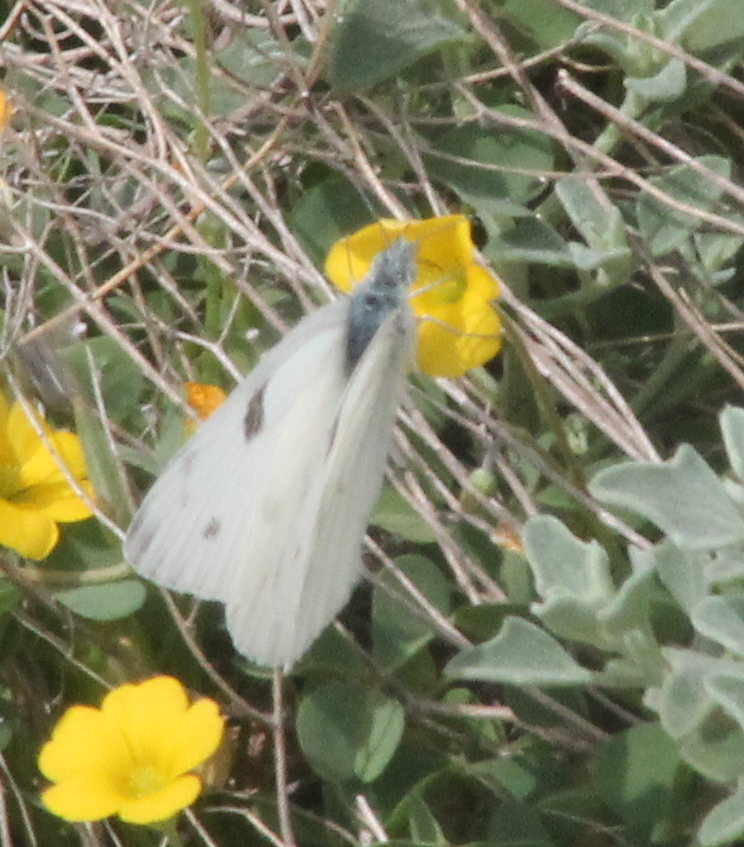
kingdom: Animalia
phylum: Arthropoda
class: Insecta
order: Lepidoptera
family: Pieridae
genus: Pontia
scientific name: Pontia protodice
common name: Checkered white
